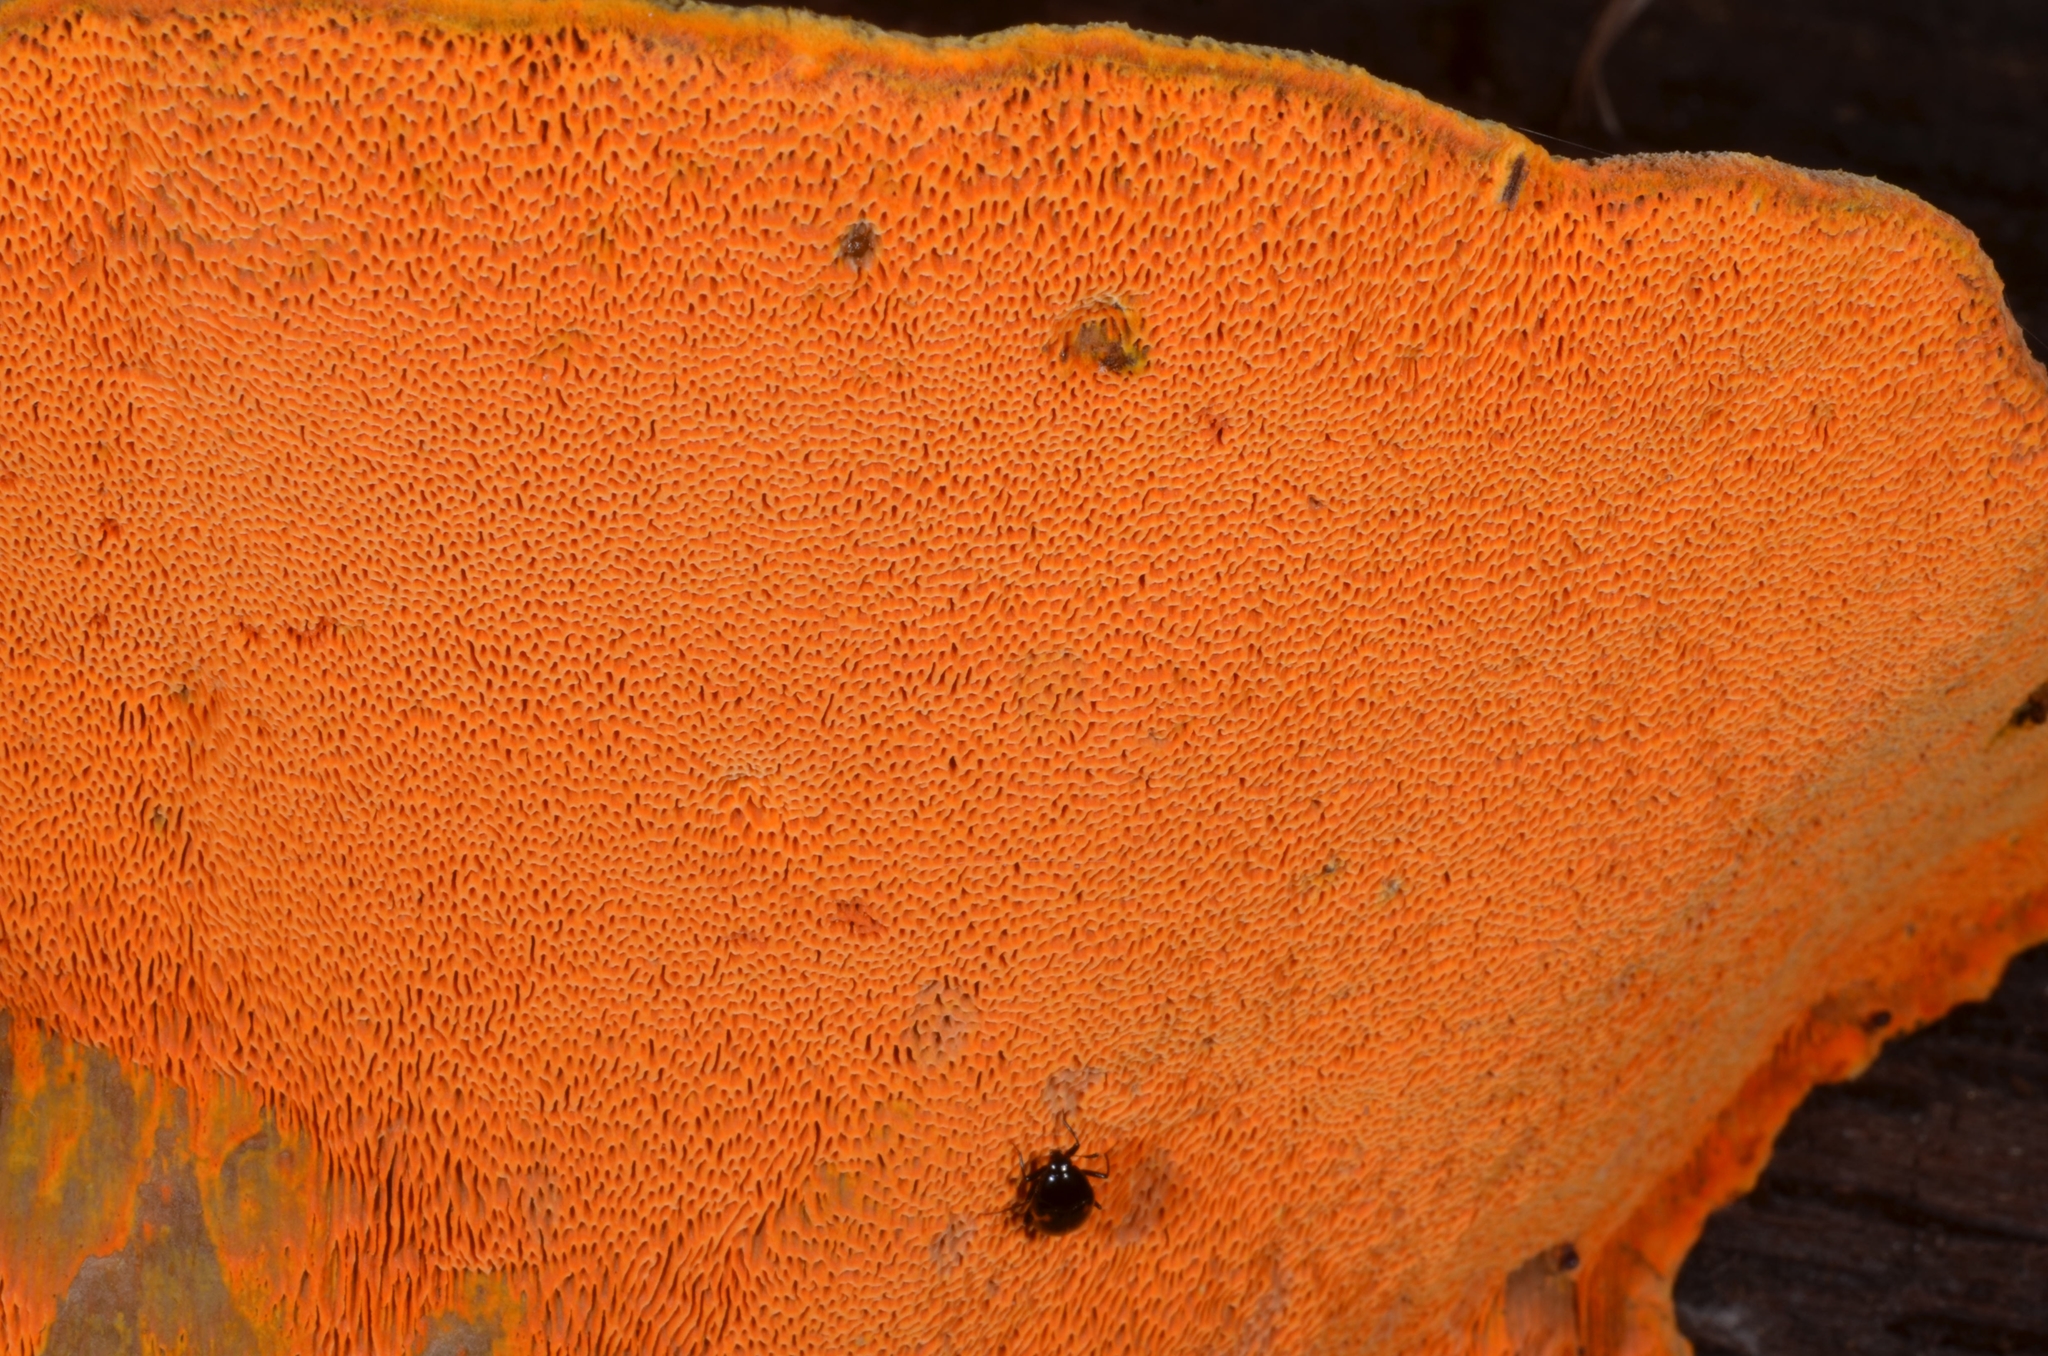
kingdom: Fungi
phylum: Basidiomycota
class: Agaricomycetes
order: Polyporales
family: Phanerochaetaceae
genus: Hapalopilus
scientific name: Hapalopilus croceus
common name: Orange polypore
